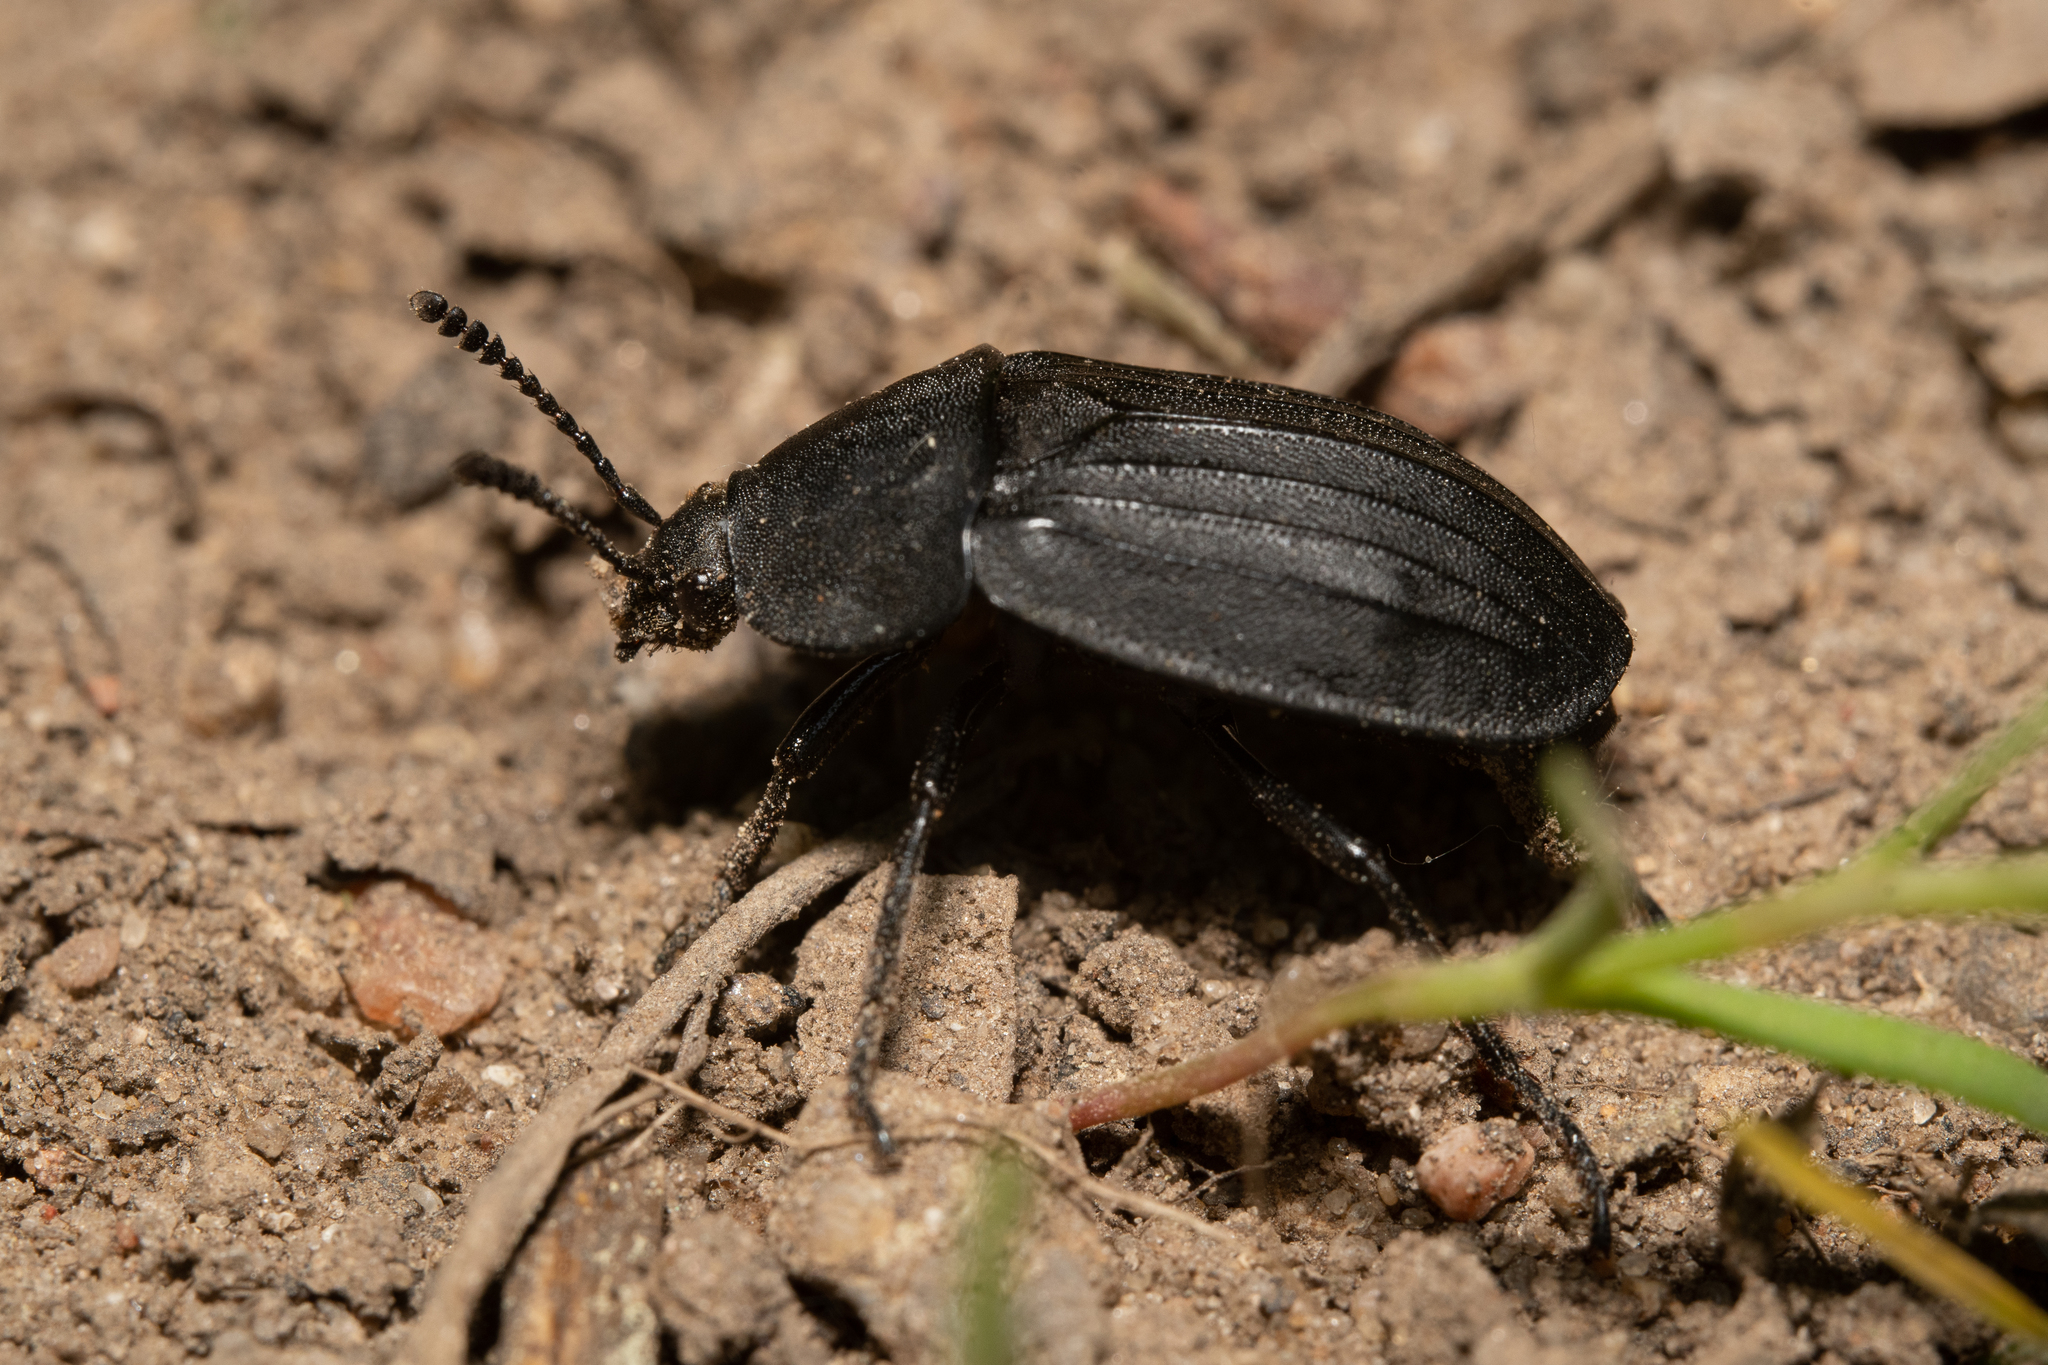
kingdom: Animalia
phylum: Arthropoda
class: Insecta
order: Coleoptera
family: Staphylinidae
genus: Silpha
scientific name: Silpha tristis
